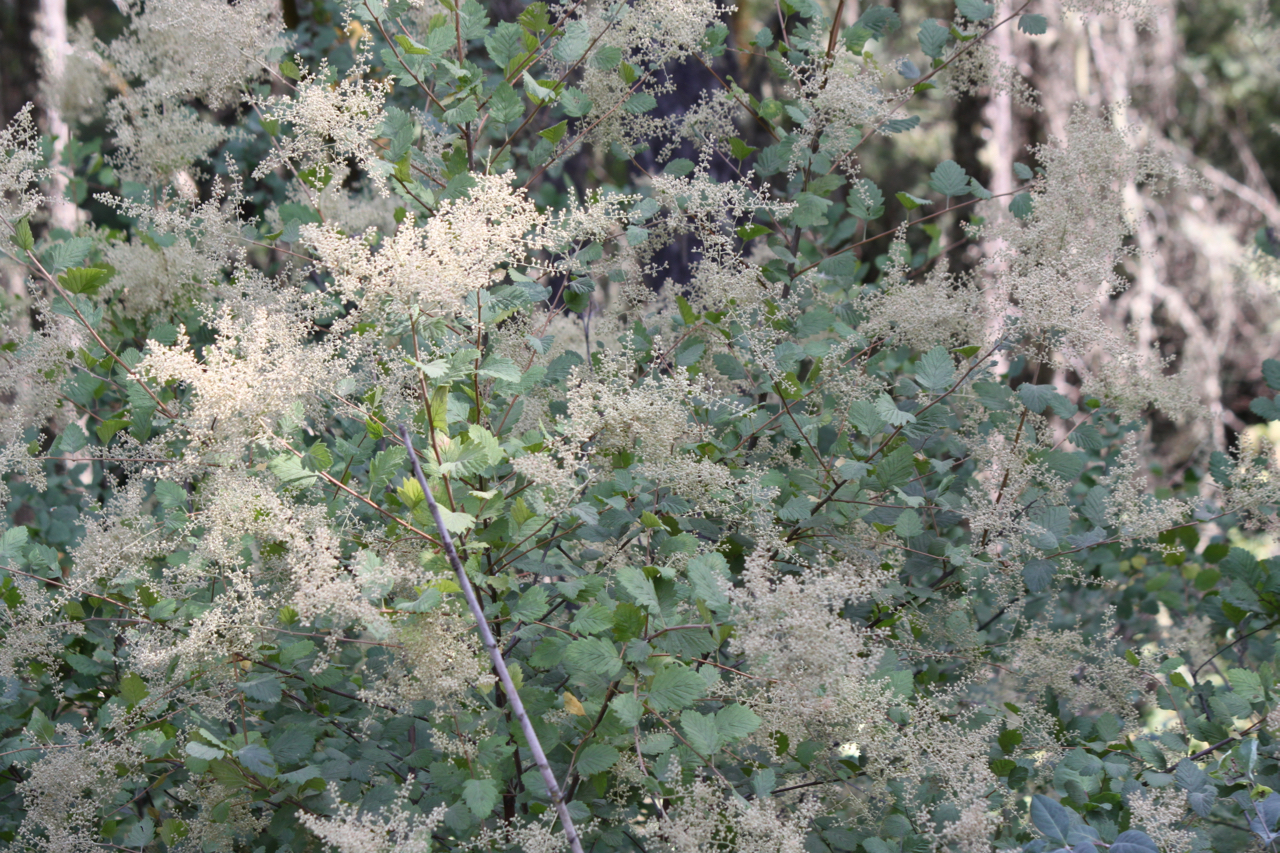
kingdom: Plantae
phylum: Tracheophyta
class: Magnoliopsida
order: Rosales
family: Rosaceae
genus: Holodiscus
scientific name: Holodiscus discolor
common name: Oceanspray
